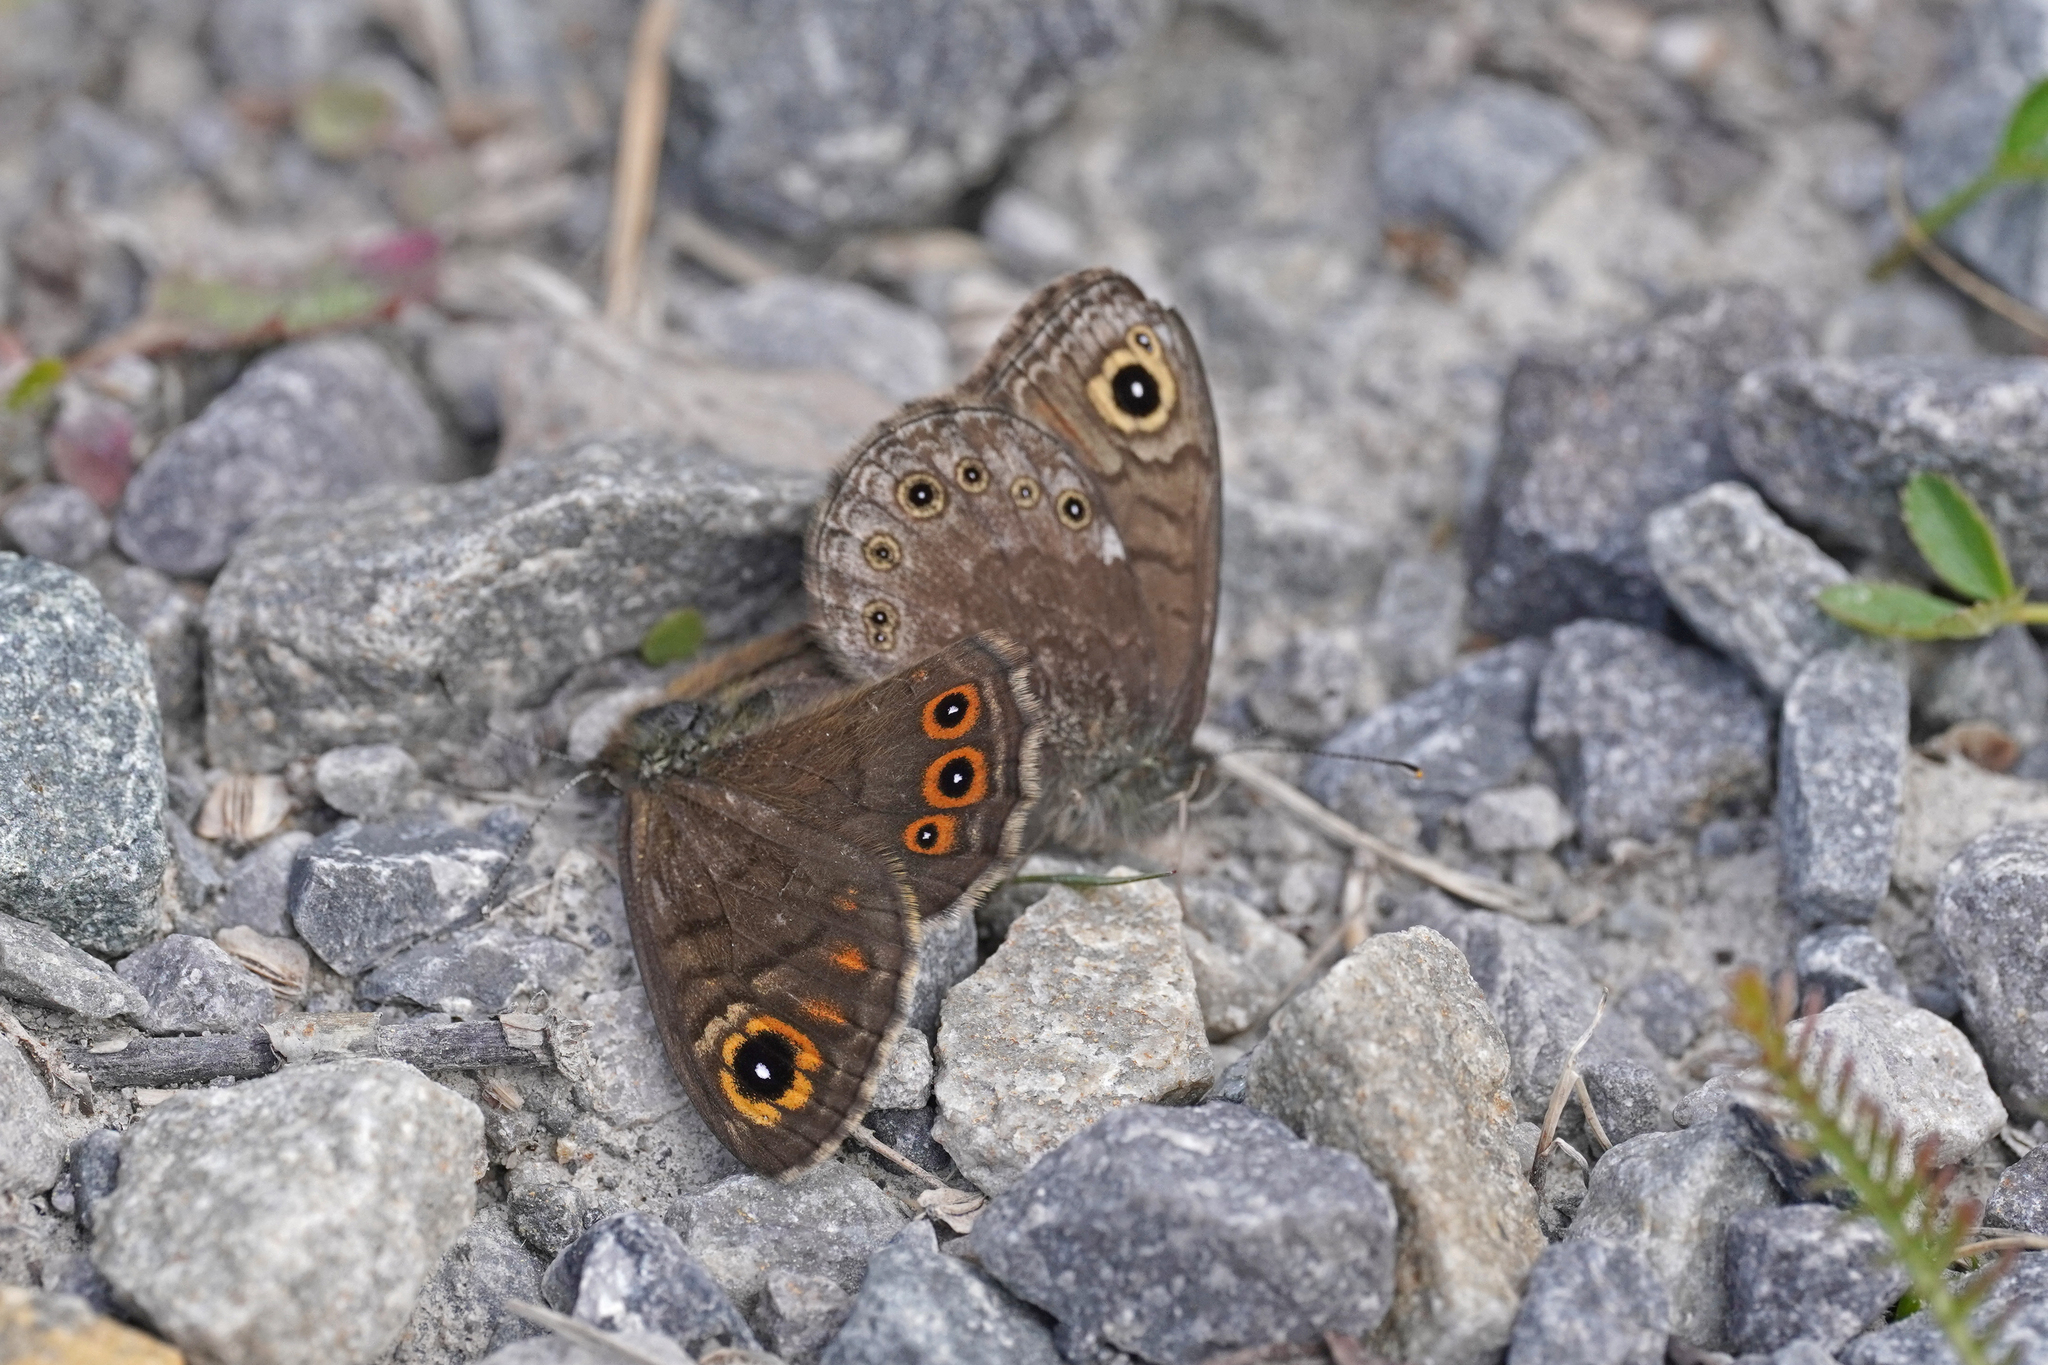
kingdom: Animalia
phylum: Arthropoda
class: Insecta
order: Lepidoptera
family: Nymphalidae
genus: Pararge
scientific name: Pararge petropolitana
